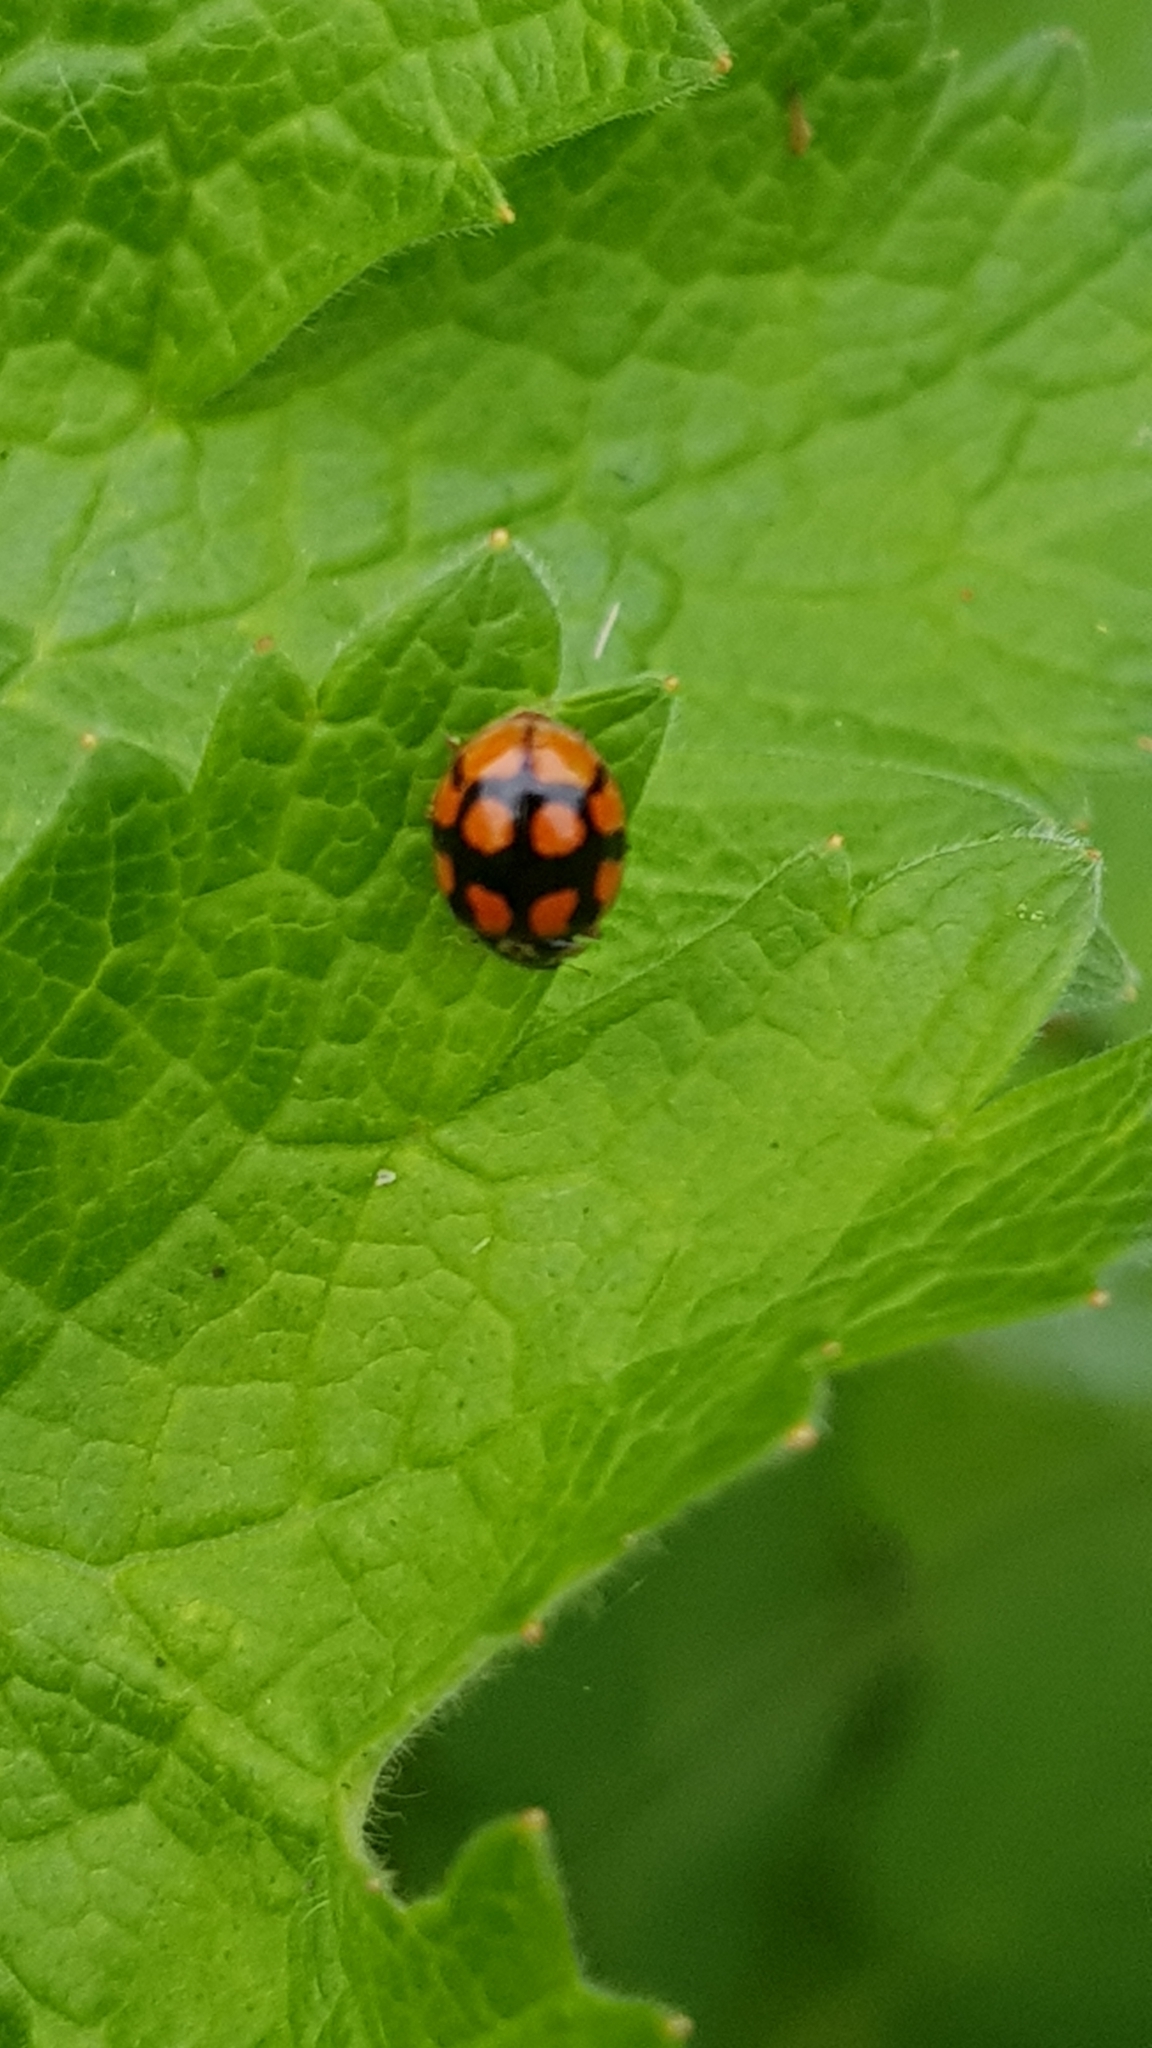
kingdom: Animalia
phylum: Arthropoda
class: Insecta
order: Coleoptera
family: Coccinellidae
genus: Adalia
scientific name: Adalia decempunctata
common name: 10-spot ladybird
